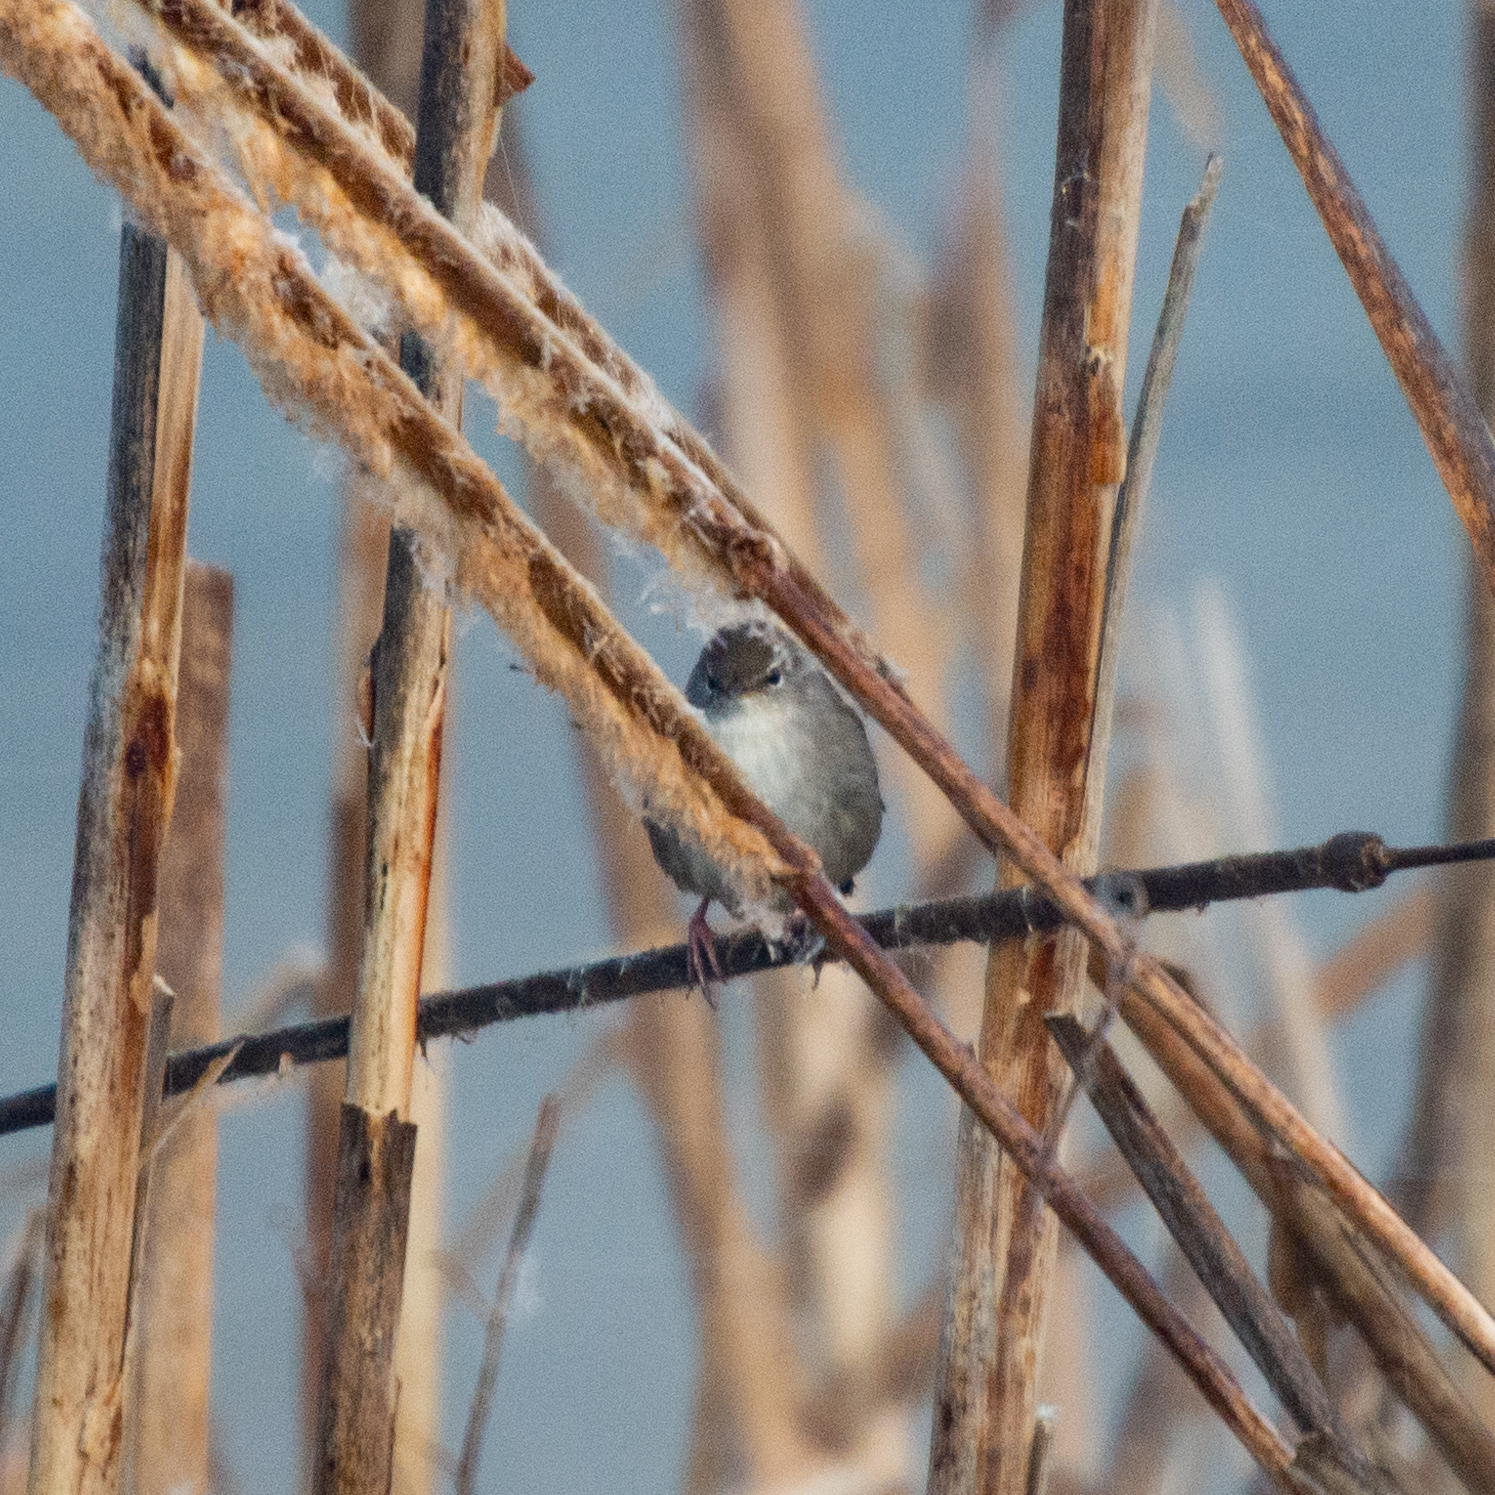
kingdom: Animalia
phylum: Chordata
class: Aves
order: Passeriformes
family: Cettiidae
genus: Cettia
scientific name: Cettia cetti
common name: Cetti's warbler
